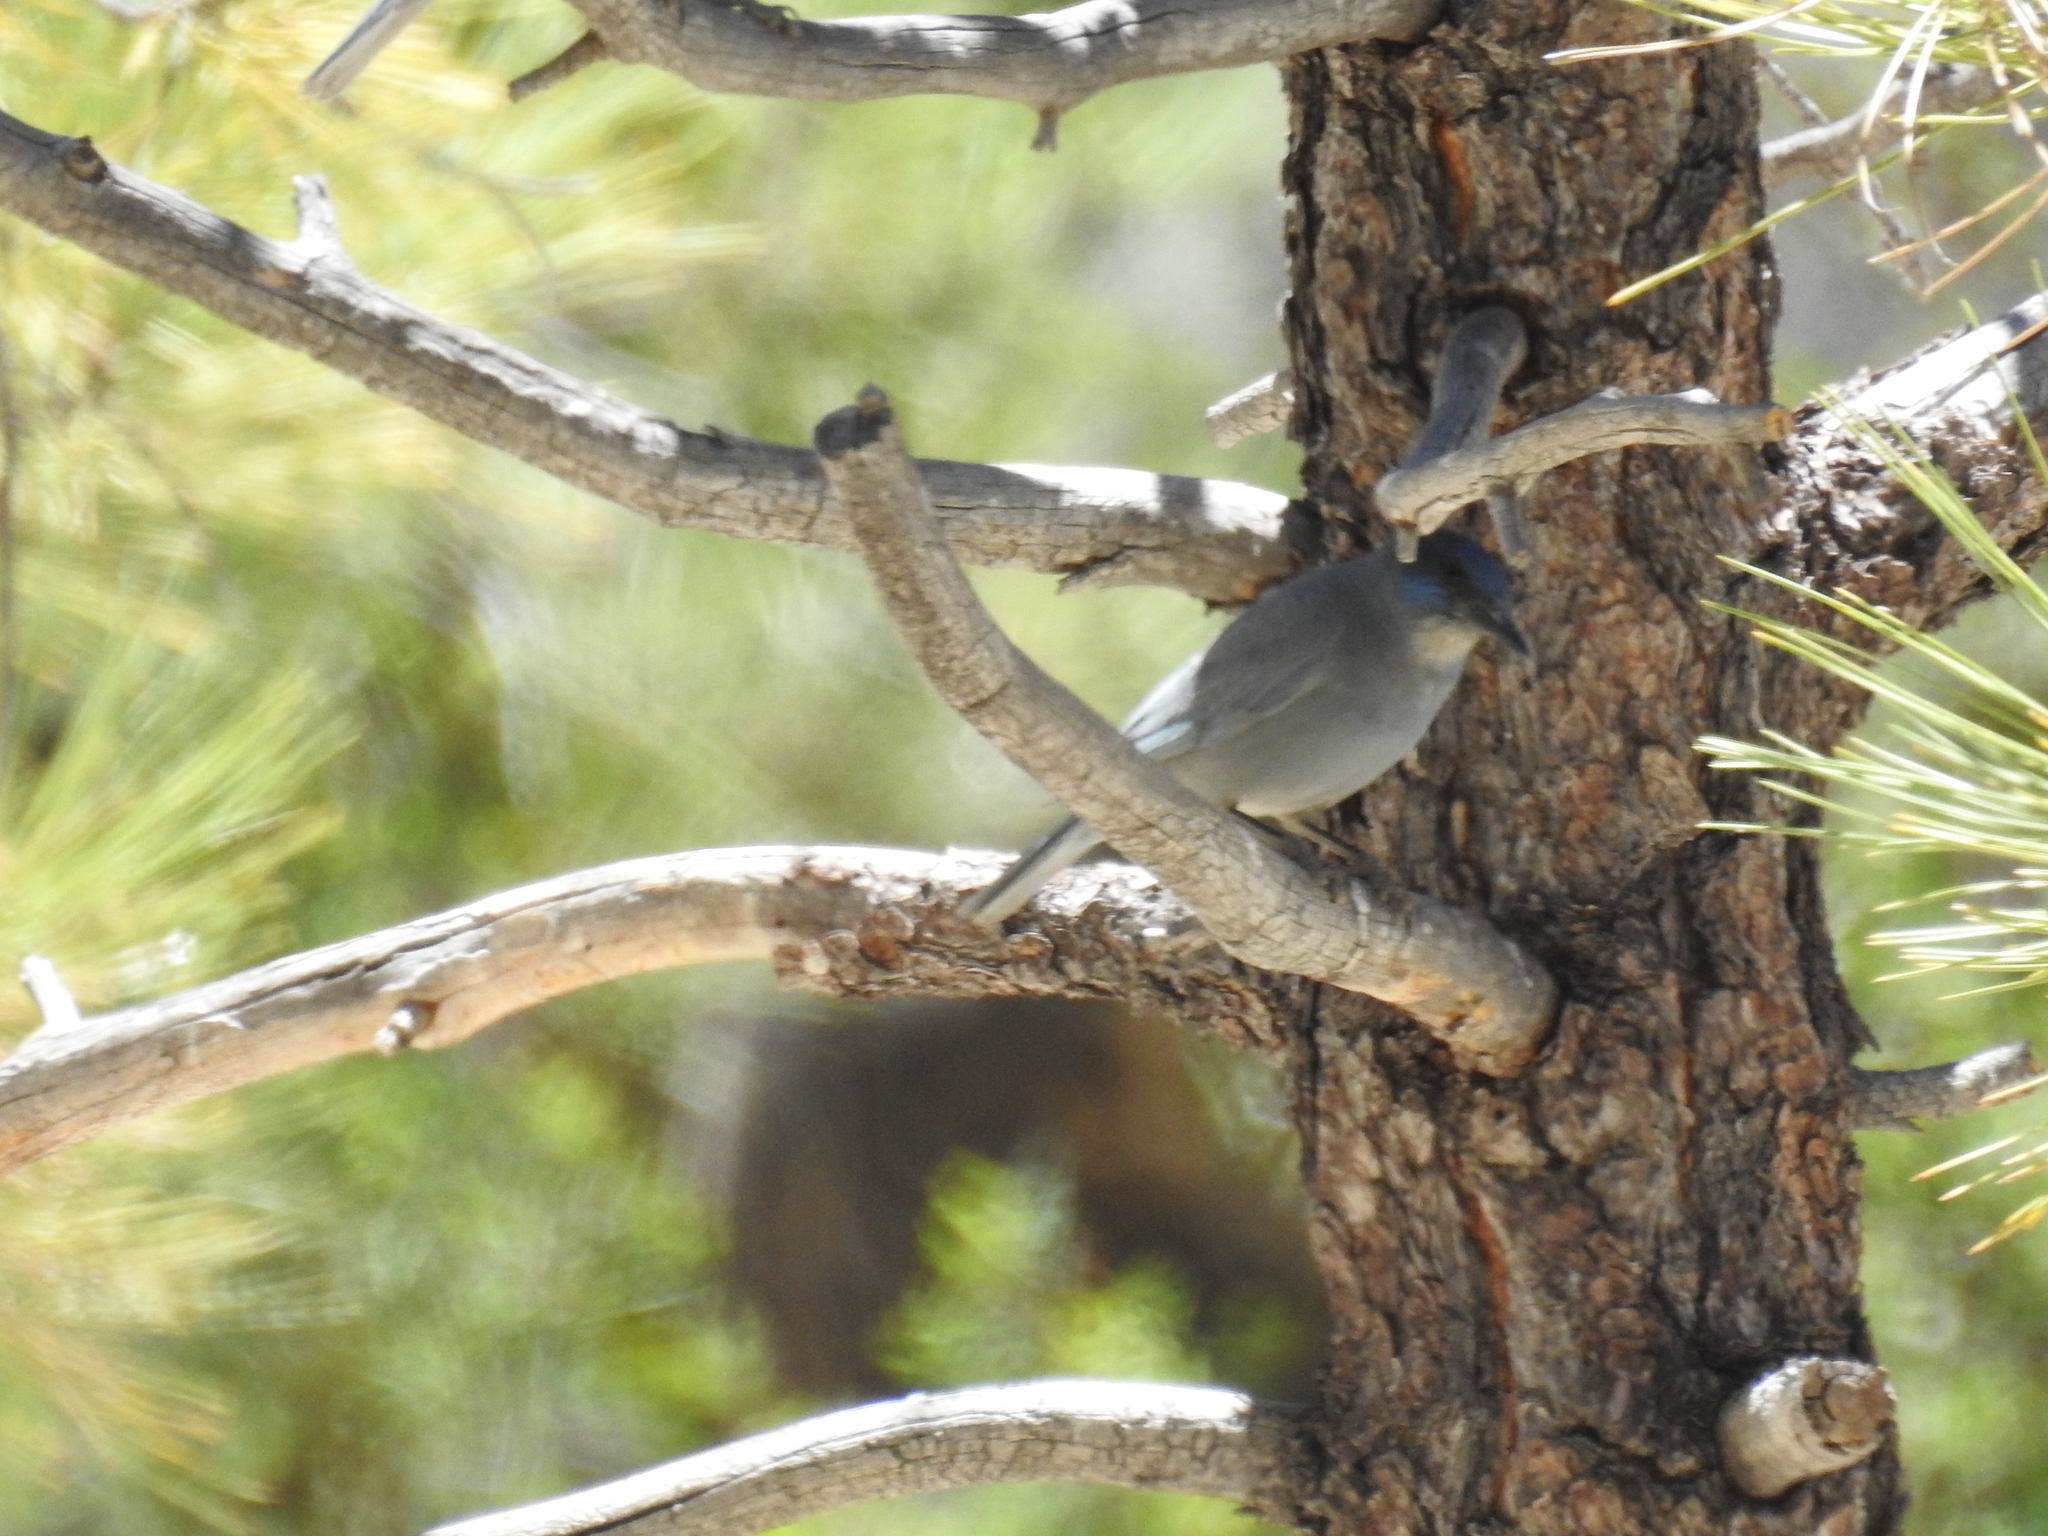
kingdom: Animalia
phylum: Chordata
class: Aves
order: Passeriformes
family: Corvidae
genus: Gymnorhinus
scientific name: Gymnorhinus cyanocephalus
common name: Pinyon jay
